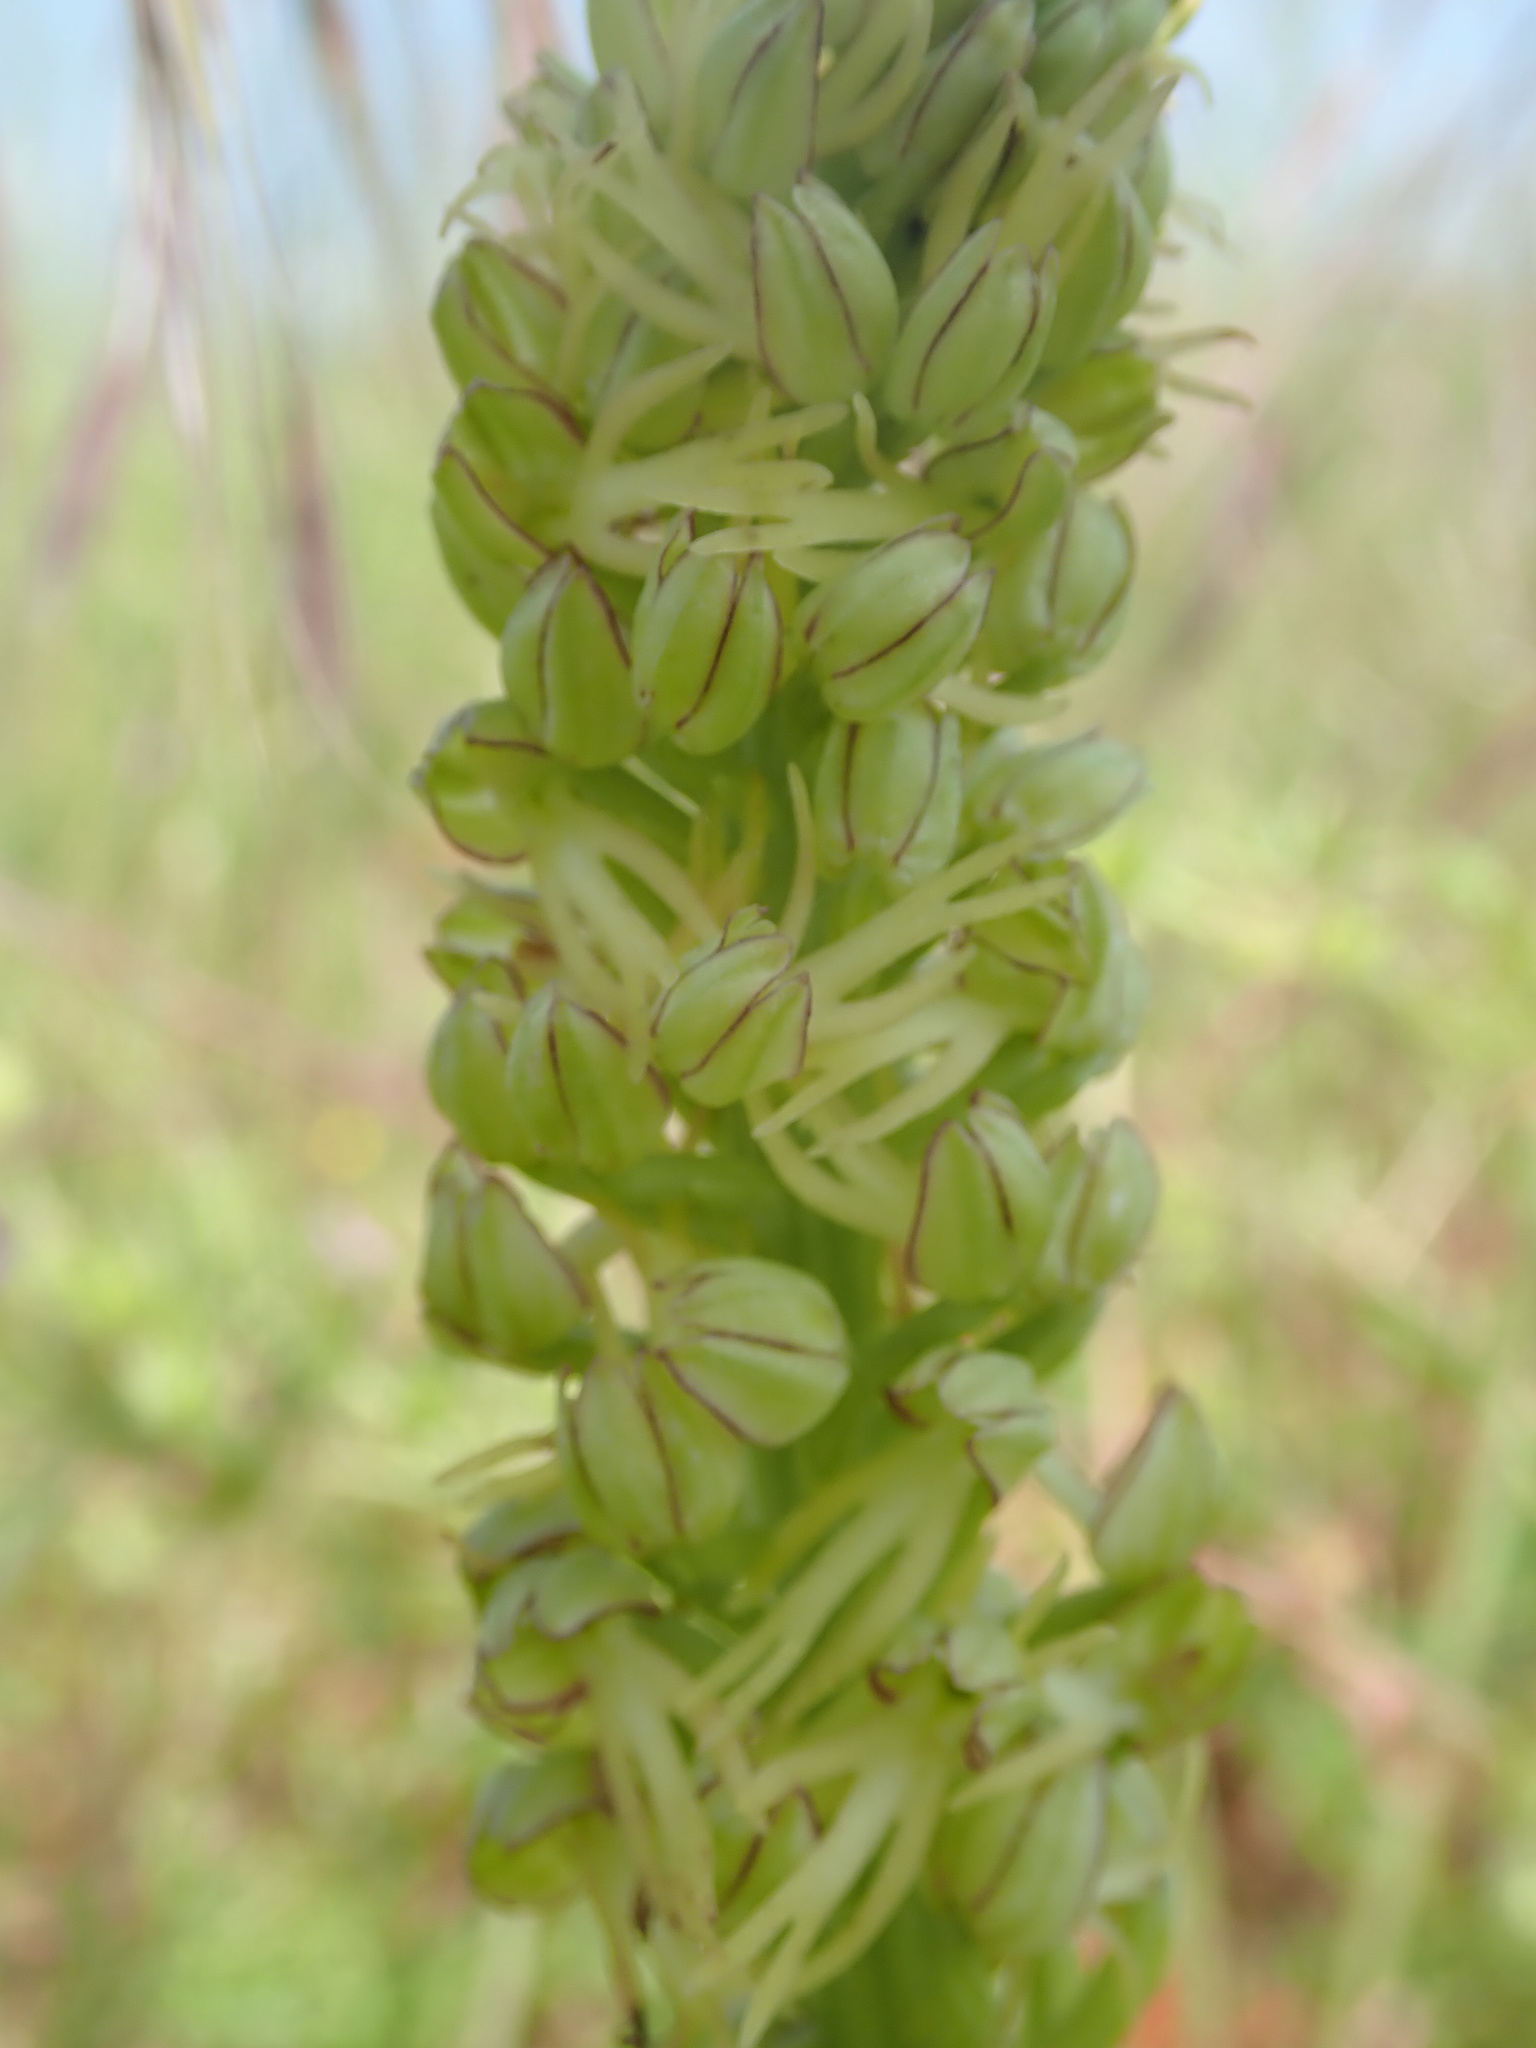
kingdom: Plantae
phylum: Tracheophyta
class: Liliopsida
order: Asparagales
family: Orchidaceae
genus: Orchis
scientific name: Orchis anthropophora
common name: Man orchid
